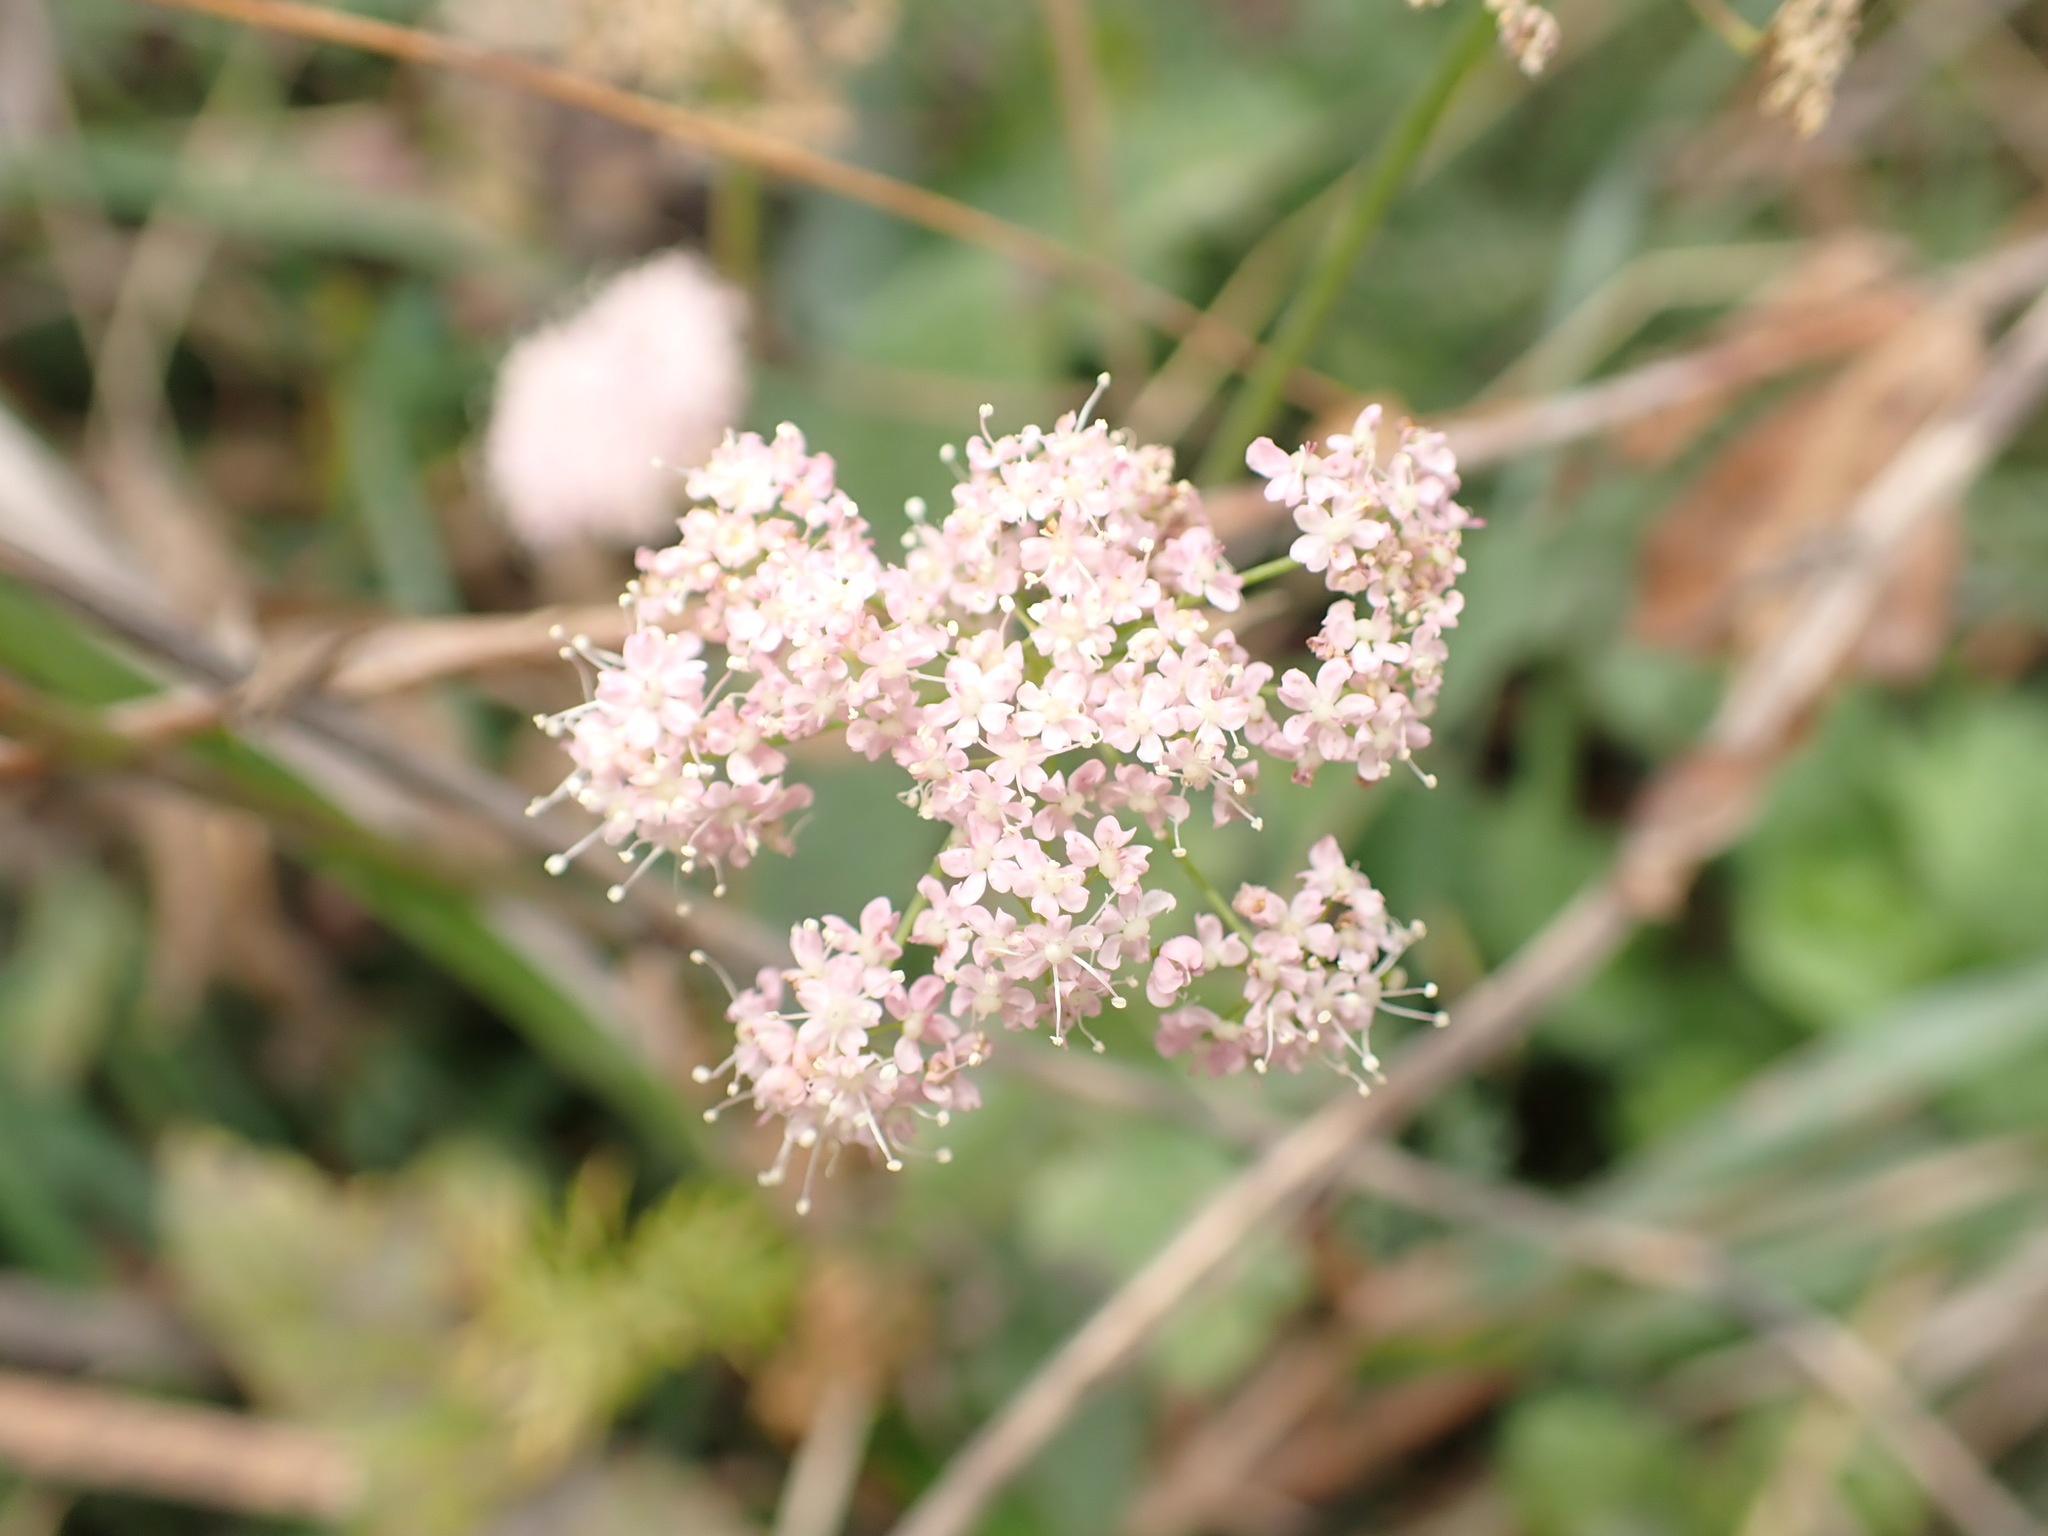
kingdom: Plantae
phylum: Tracheophyta
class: Magnoliopsida
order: Apiales
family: Apiaceae
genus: Pimpinella
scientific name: Pimpinella major
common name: Greater burnet-saxifrage
